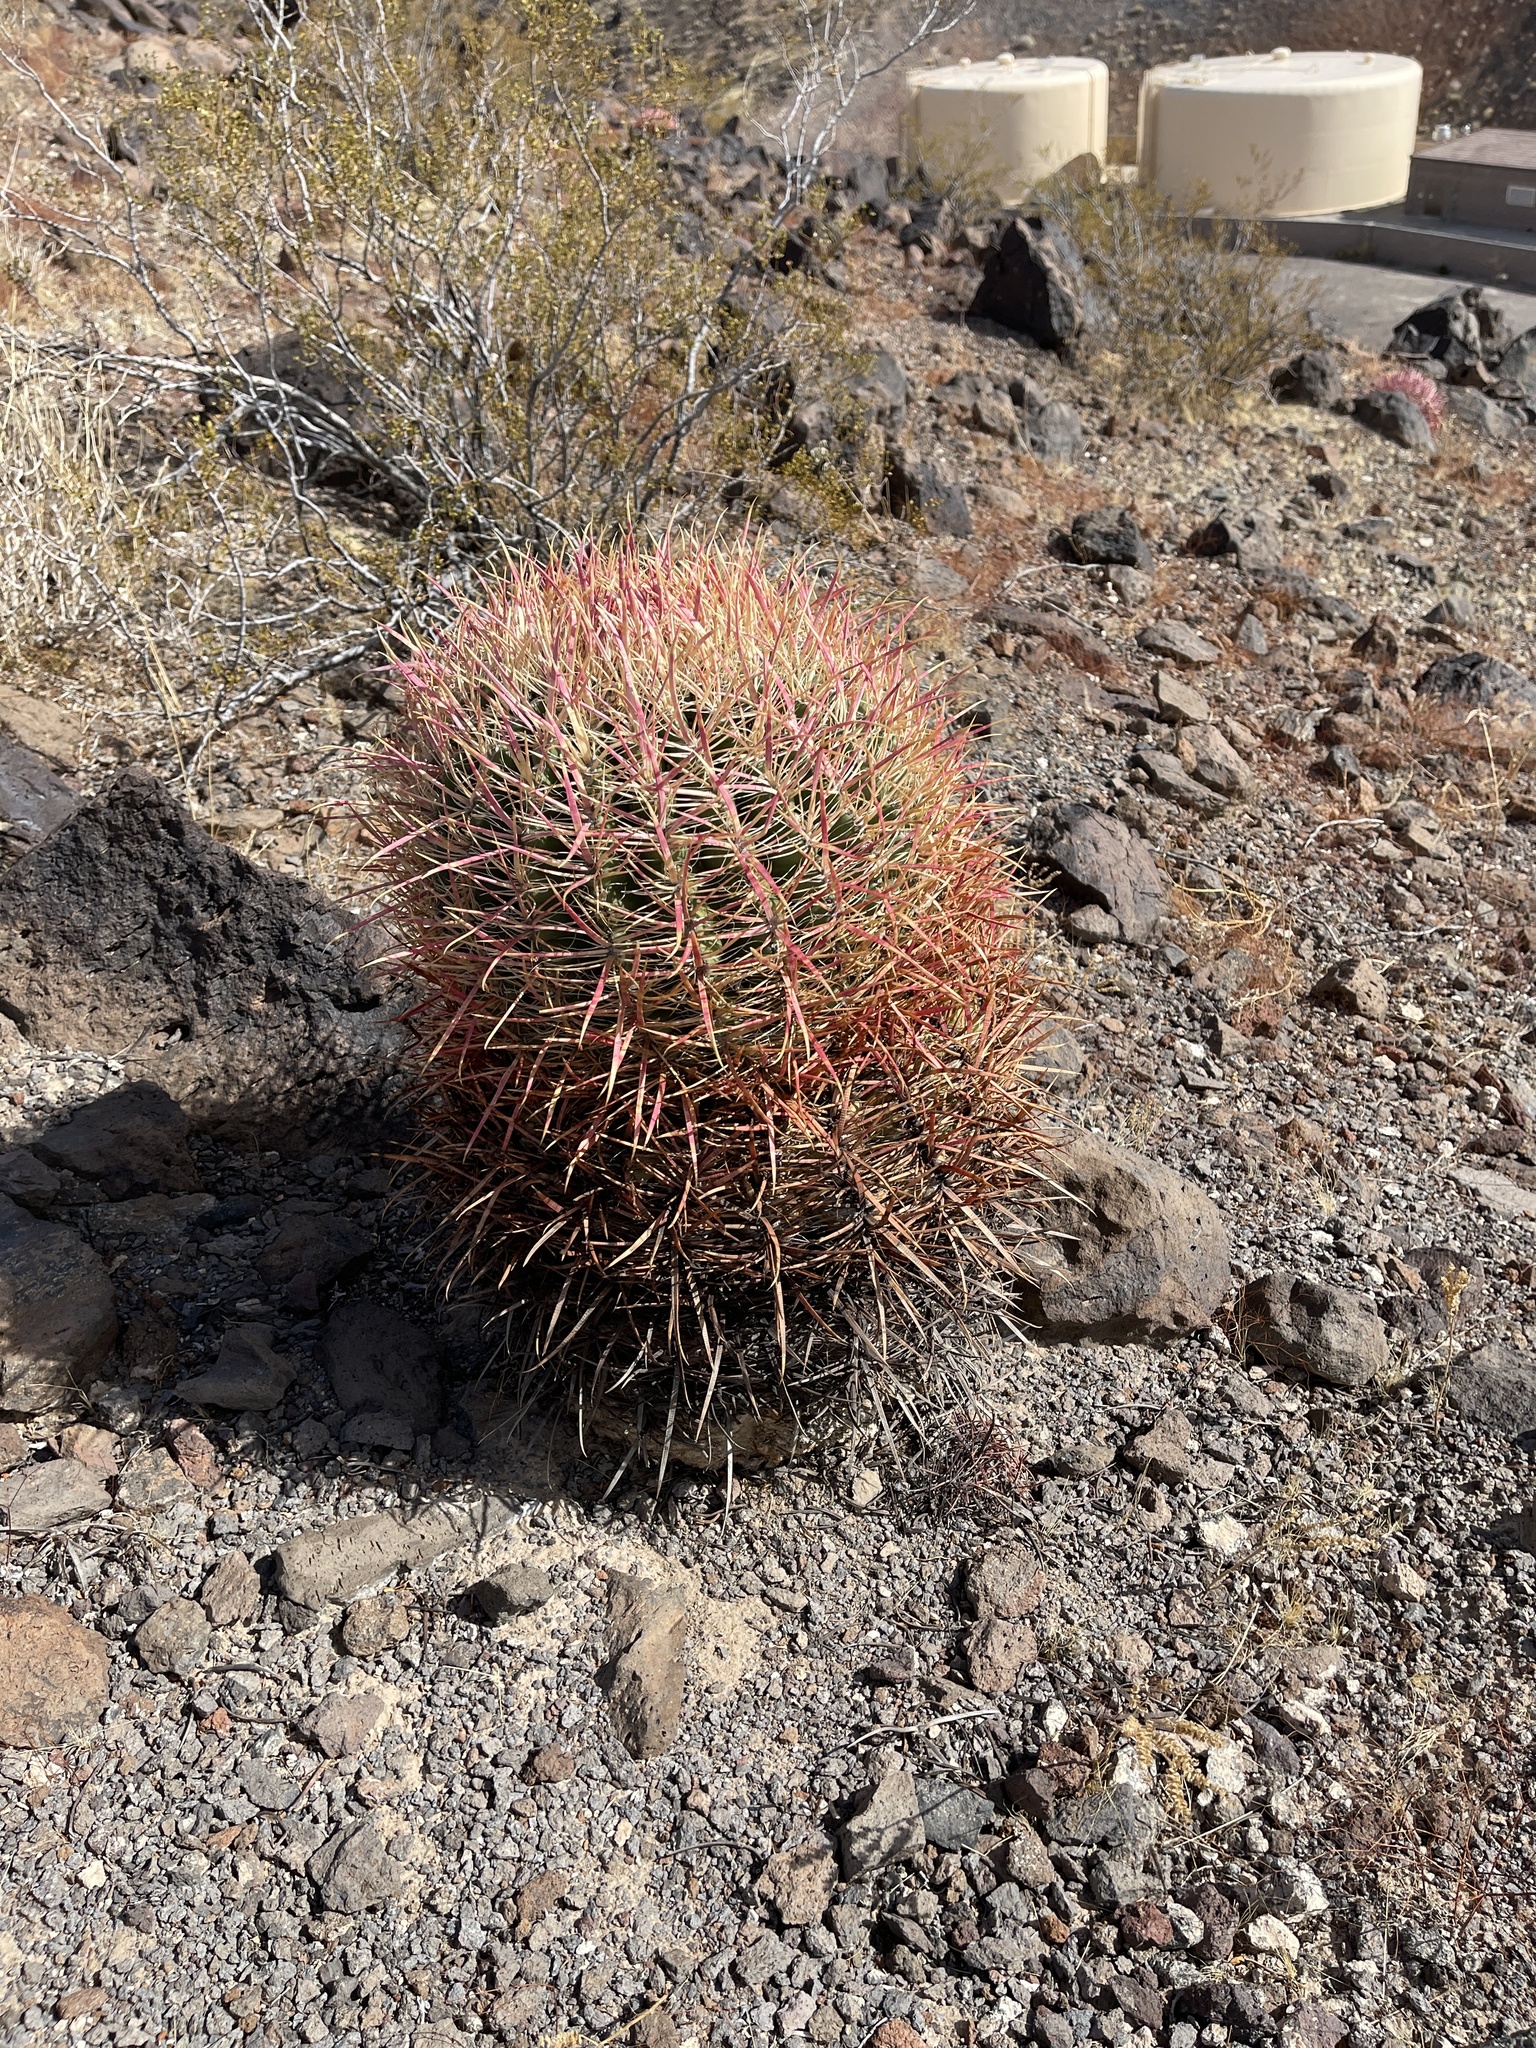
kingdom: Plantae
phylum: Tracheophyta
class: Magnoliopsida
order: Caryophyllales
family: Cactaceae
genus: Ferocactus
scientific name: Ferocactus cylindraceus
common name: California barrel cactus
